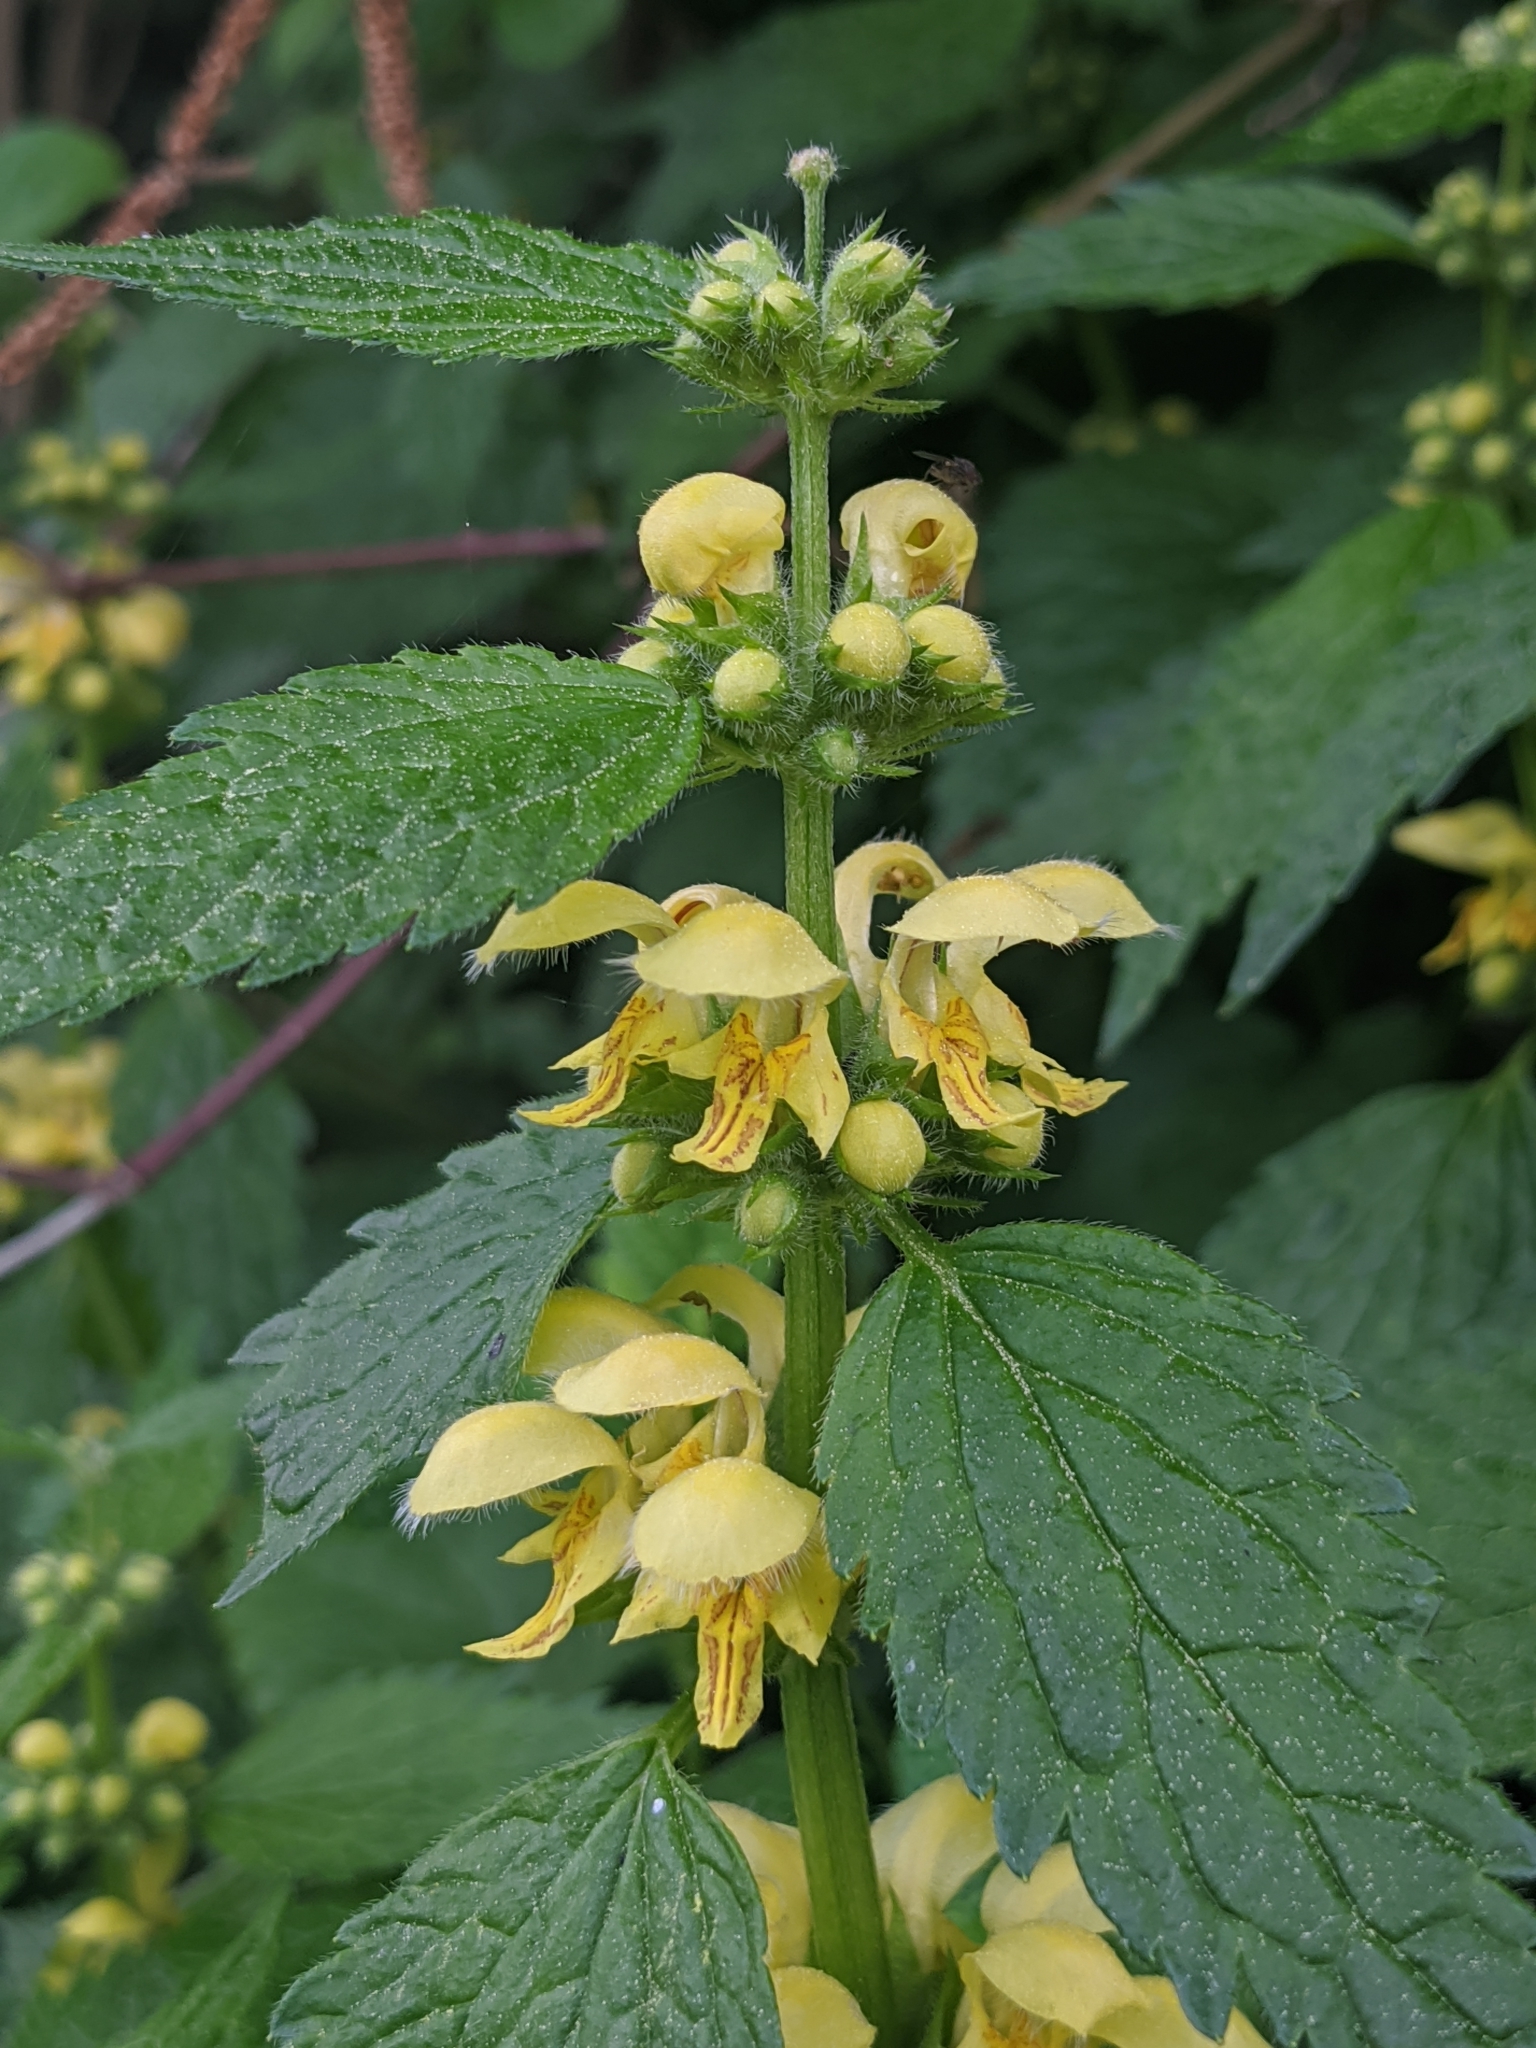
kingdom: Plantae
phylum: Tracheophyta
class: Magnoliopsida
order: Lamiales
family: Lamiaceae
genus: Lamium
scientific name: Lamium galeobdolon
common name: Yellow archangel
